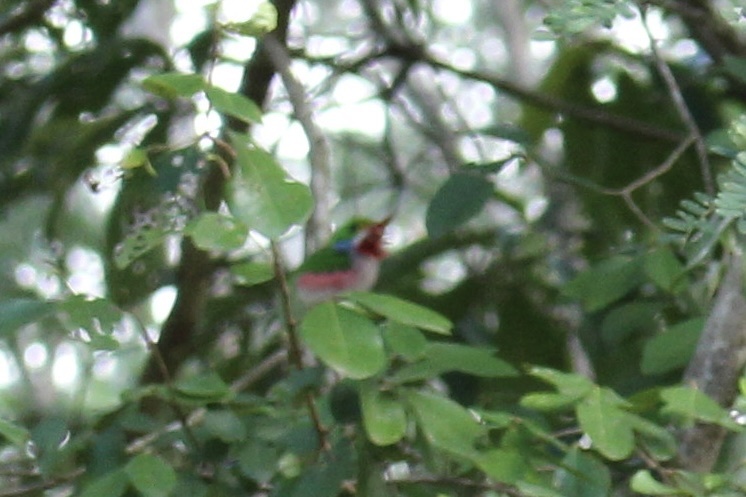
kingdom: Animalia
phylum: Chordata
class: Aves
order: Coraciiformes
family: Todidae
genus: Todus
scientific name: Todus multicolor
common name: Cuban tody
